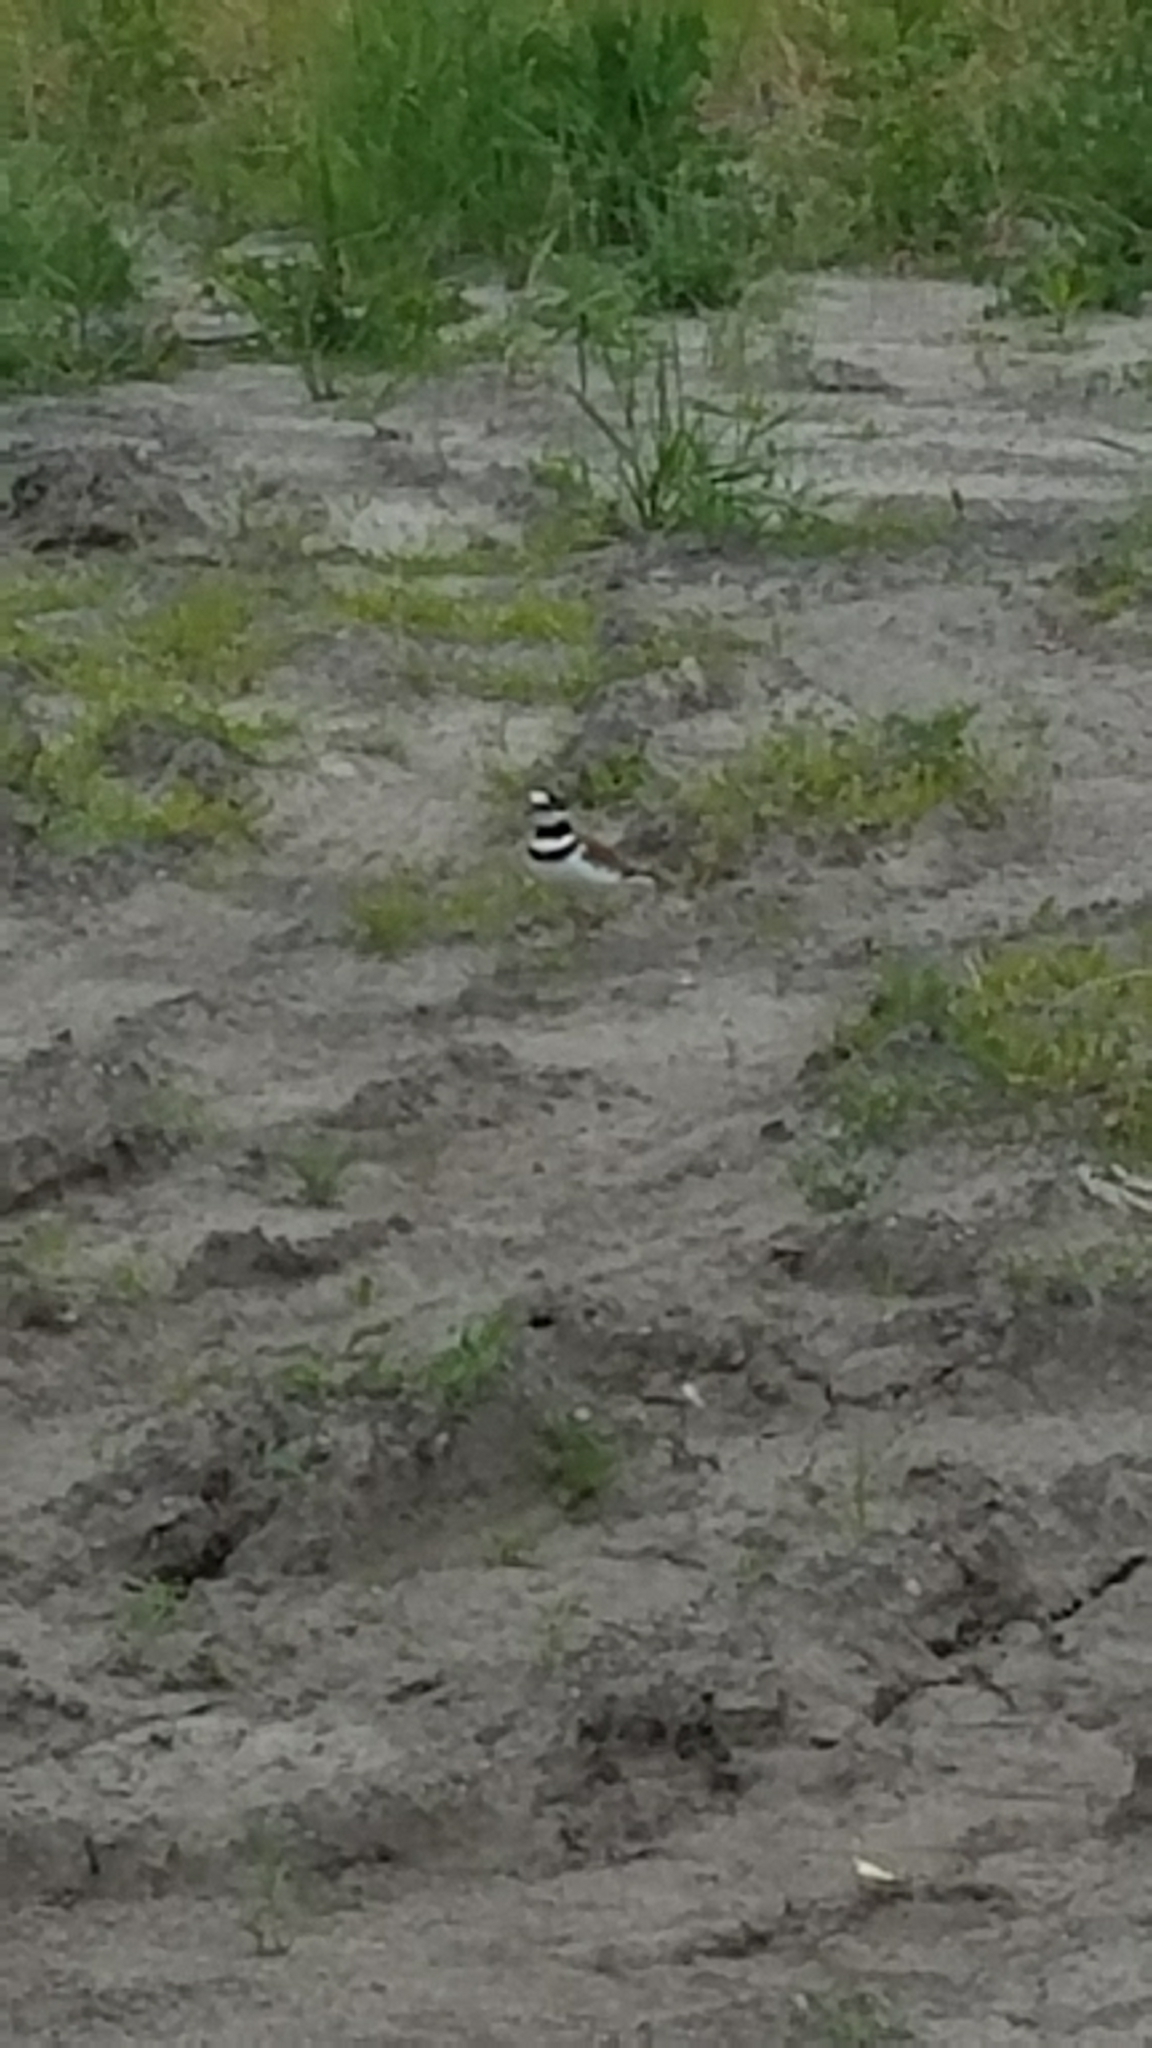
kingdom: Animalia
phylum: Chordata
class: Aves
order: Charadriiformes
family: Charadriidae
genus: Charadrius
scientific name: Charadrius vociferus
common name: Killdeer
